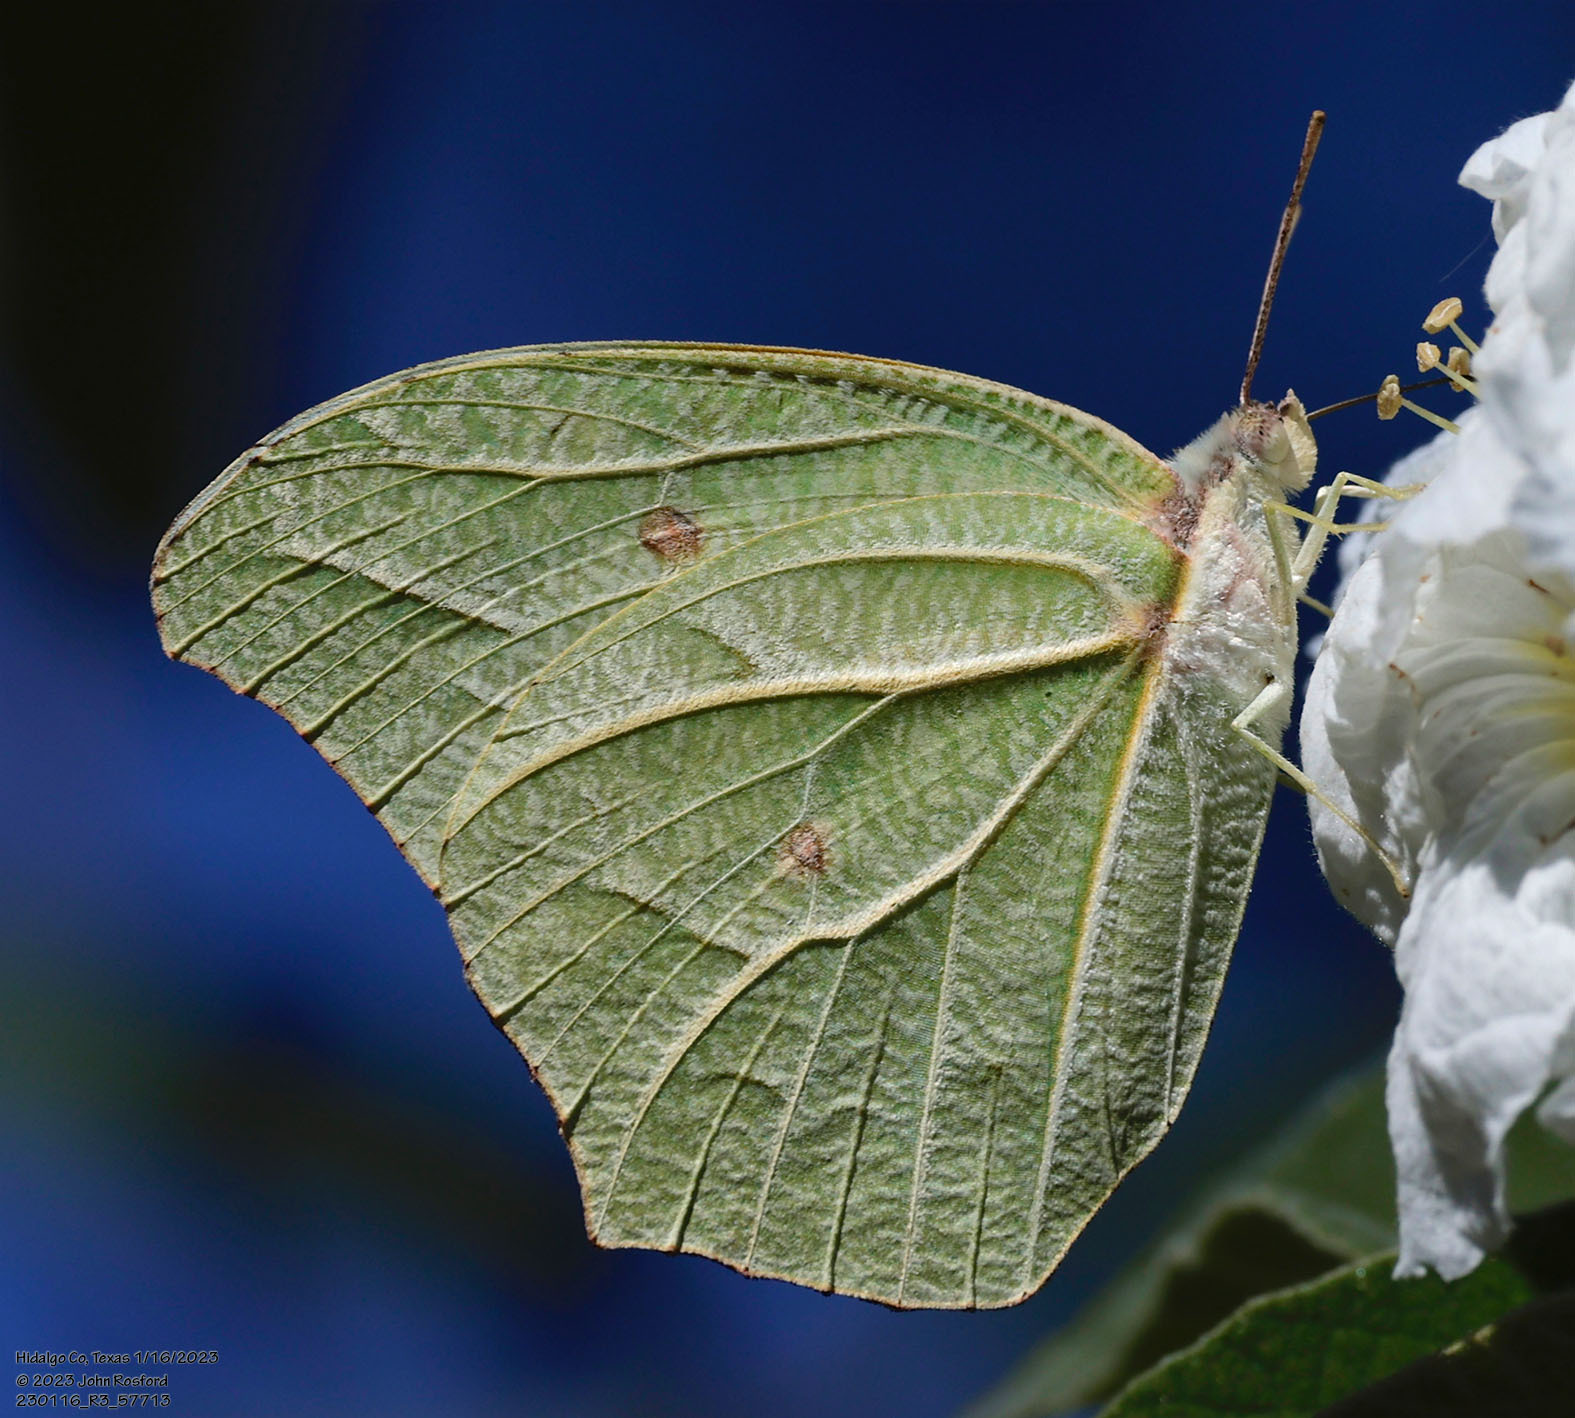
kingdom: Animalia
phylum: Arthropoda
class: Insecta
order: Lepidoptera
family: Pieridae
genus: Anteos
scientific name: Anteos clorinde
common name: White angled sulphur
